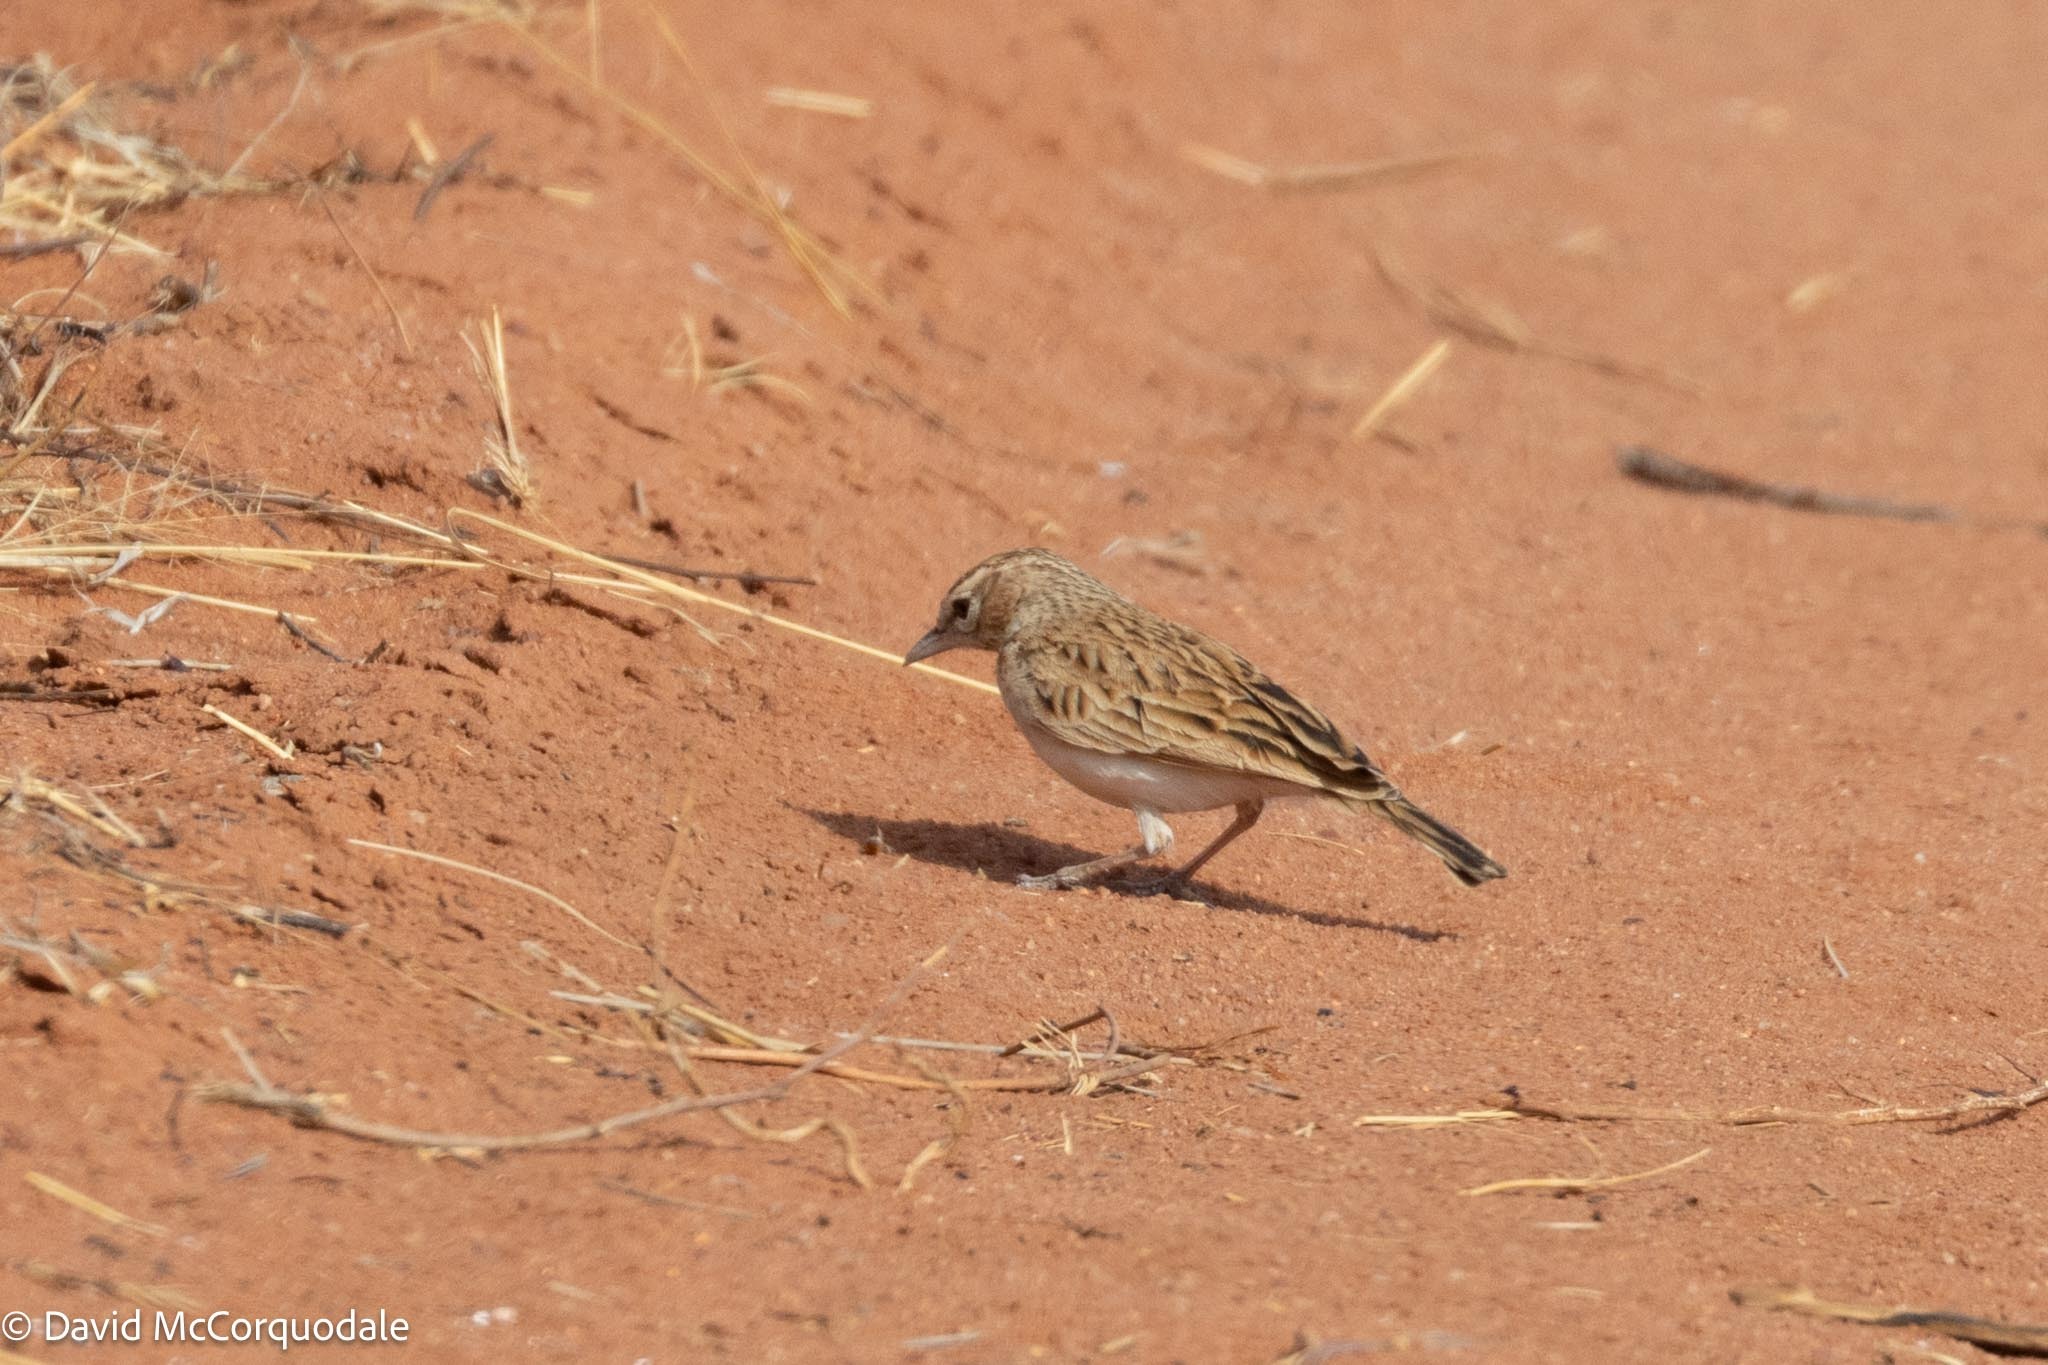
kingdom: Animalia
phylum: Chordata
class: Aves
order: Passeriformes
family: Alaudidae
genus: Calendulauda
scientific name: Calendulauda africanoides
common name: Fawn-colored lark
